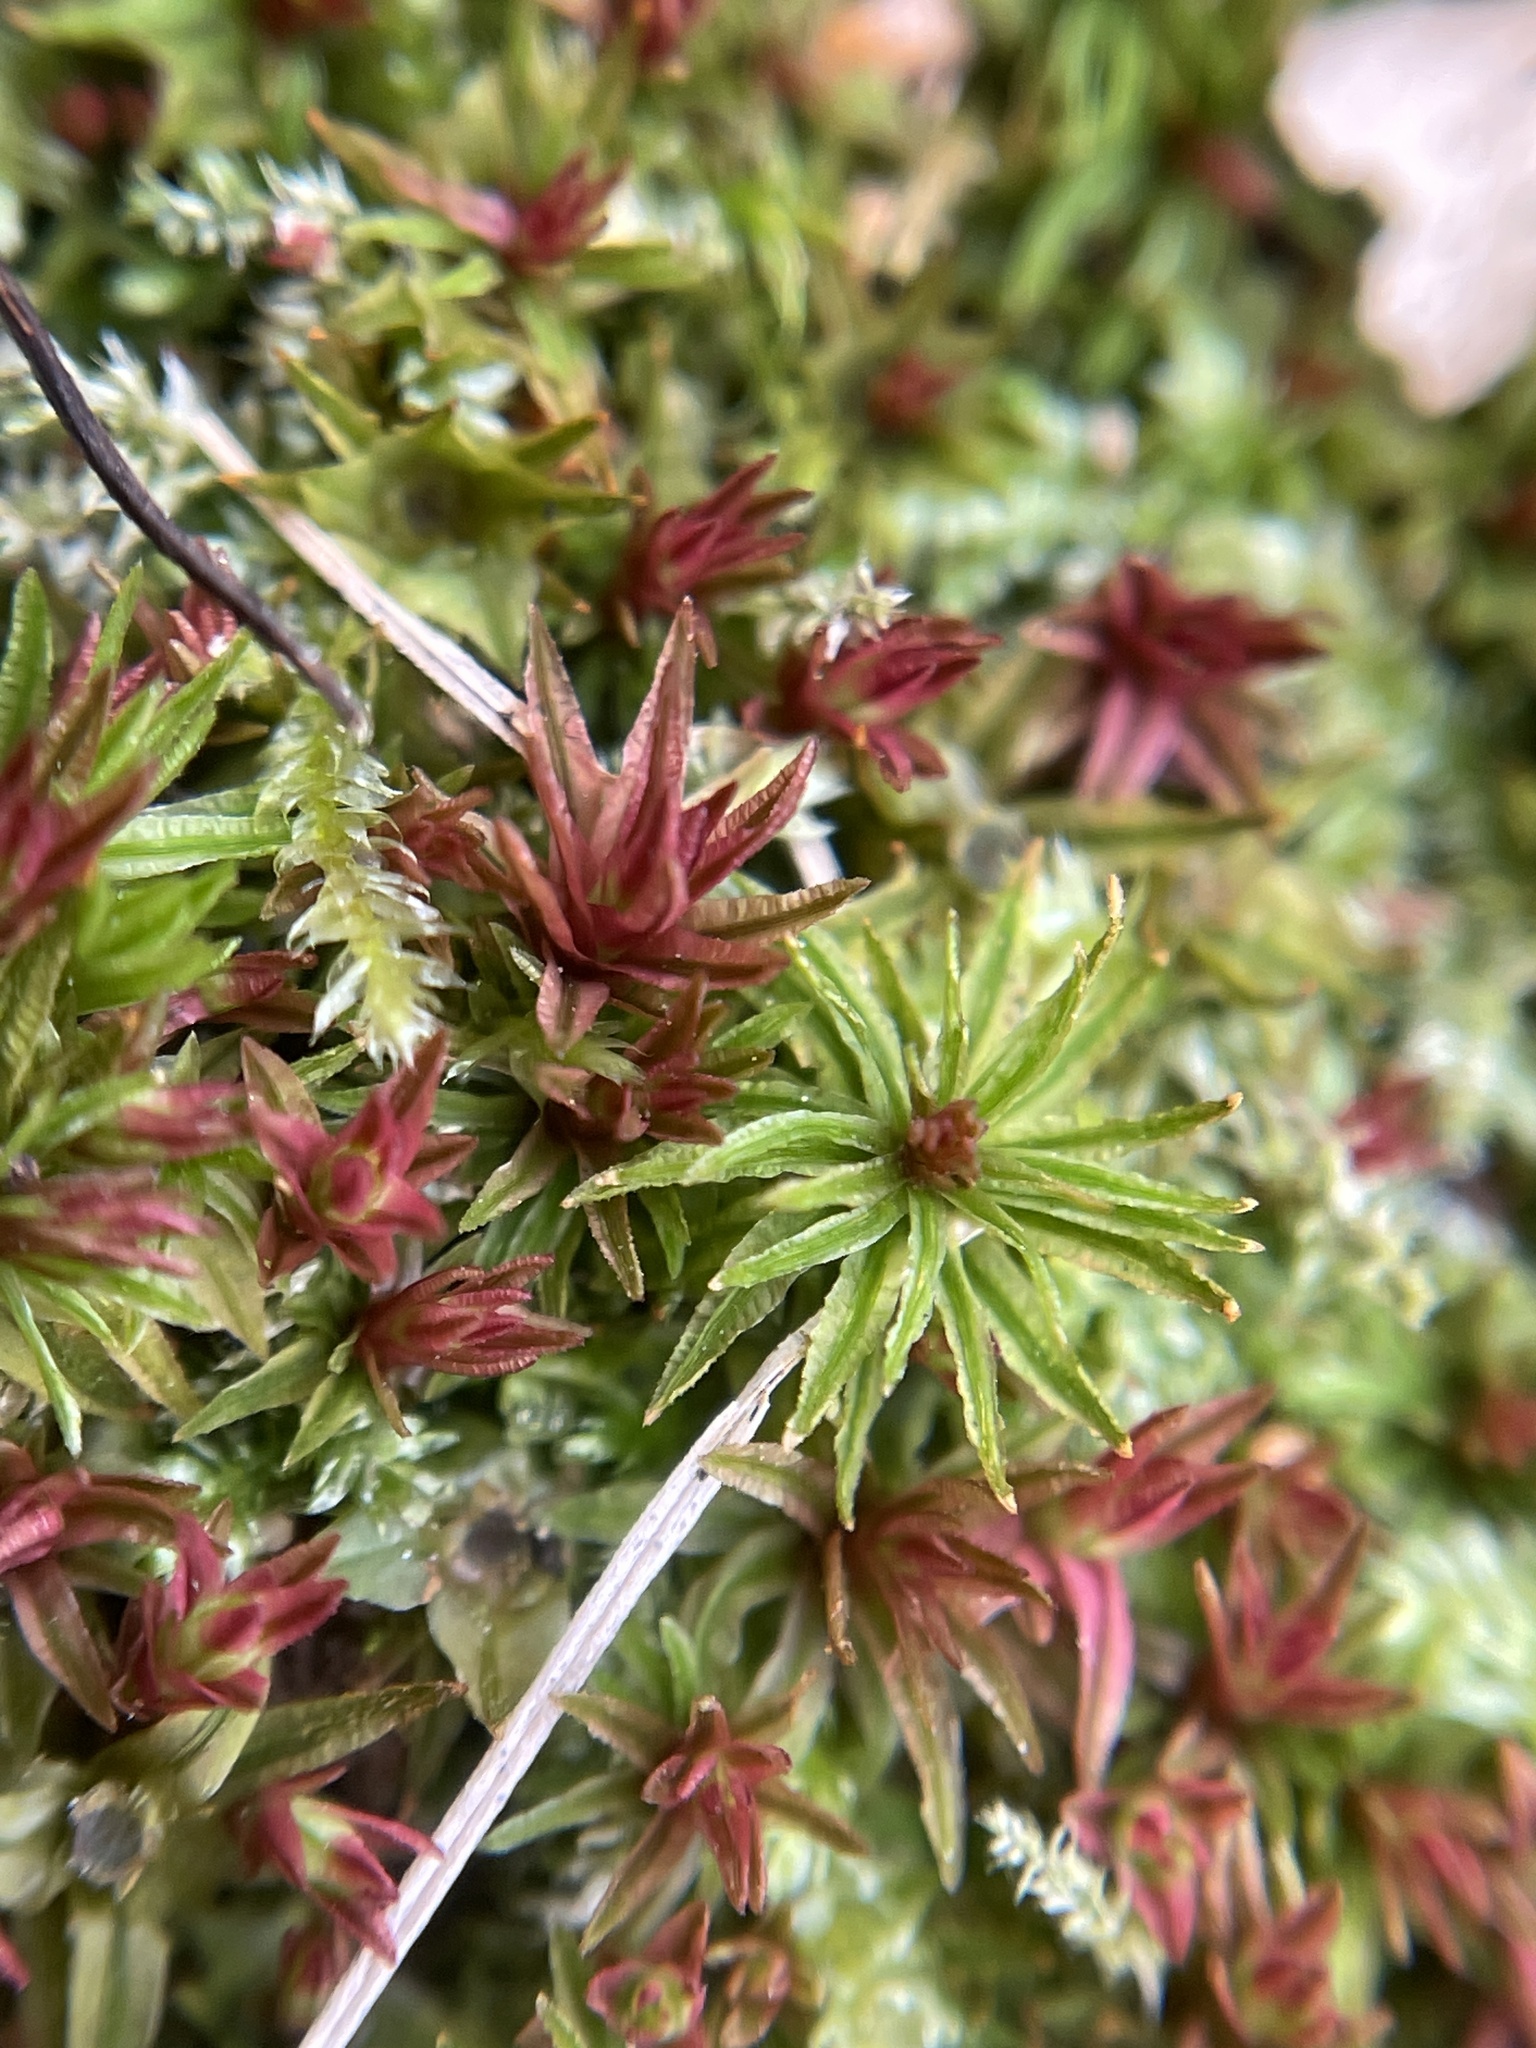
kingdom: Plantae
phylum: Bryophyta
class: Polytrichopsida
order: Polytrichales
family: Polytrichaceae
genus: Atrichum
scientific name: Atrichum angustatum
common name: Lesser smoothcap
